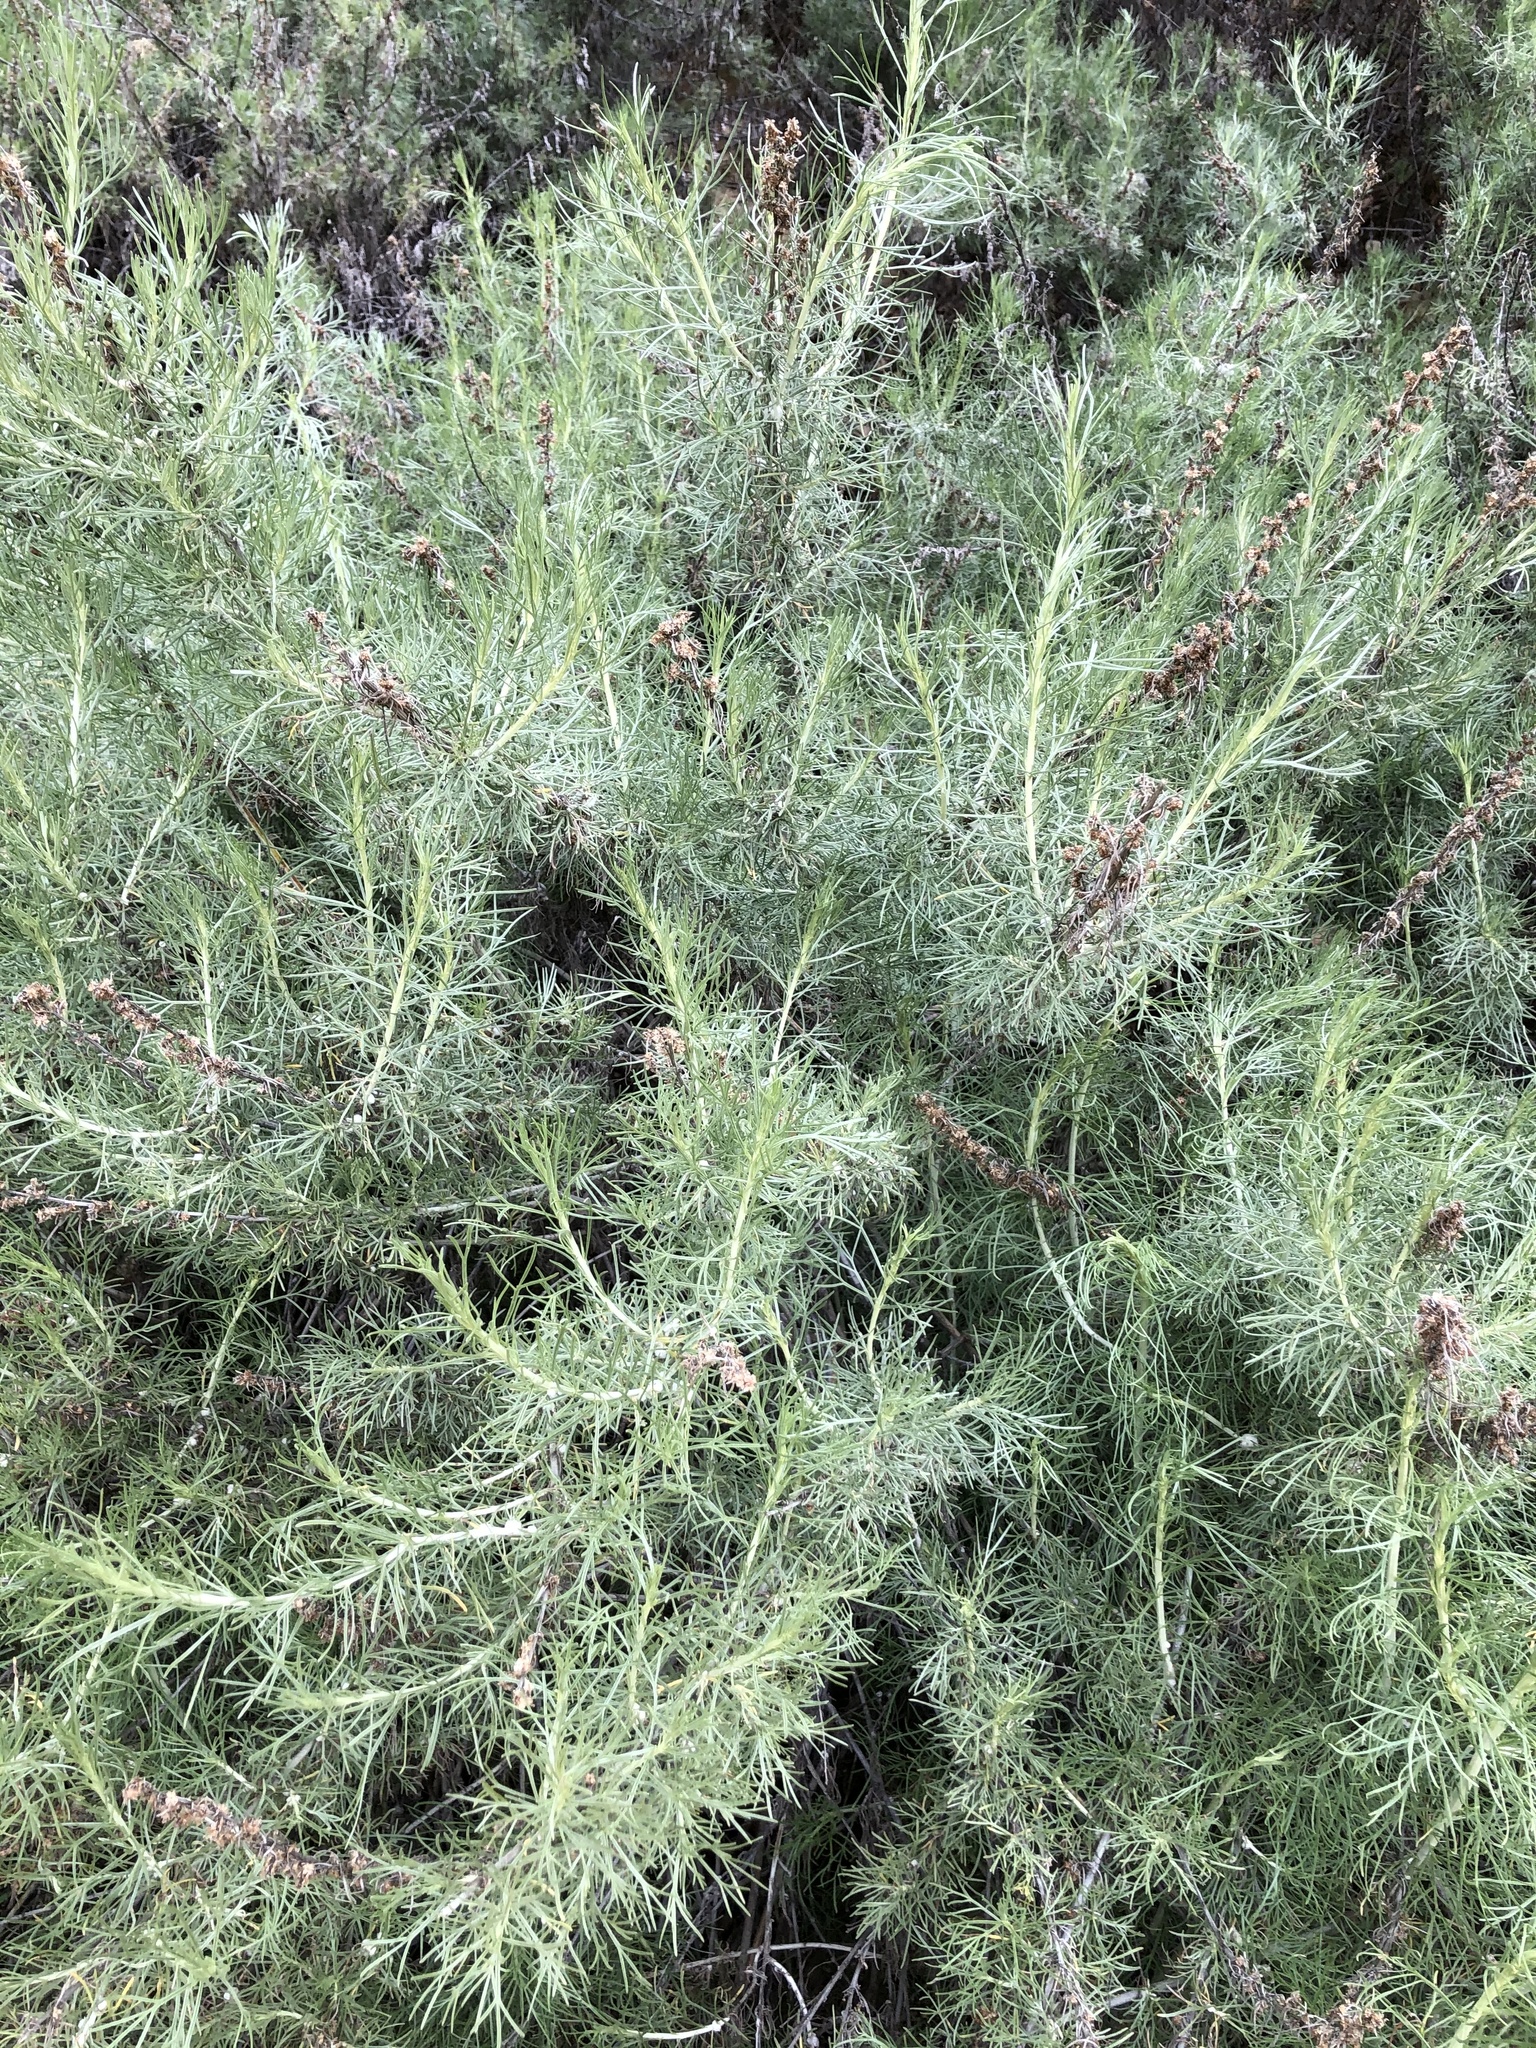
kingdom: Plantae
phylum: Tracheophyta
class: Magnoliopsida
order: Asterales
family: Asteraceae
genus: Artemisia
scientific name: Artemisia californica
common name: California sagebrush
